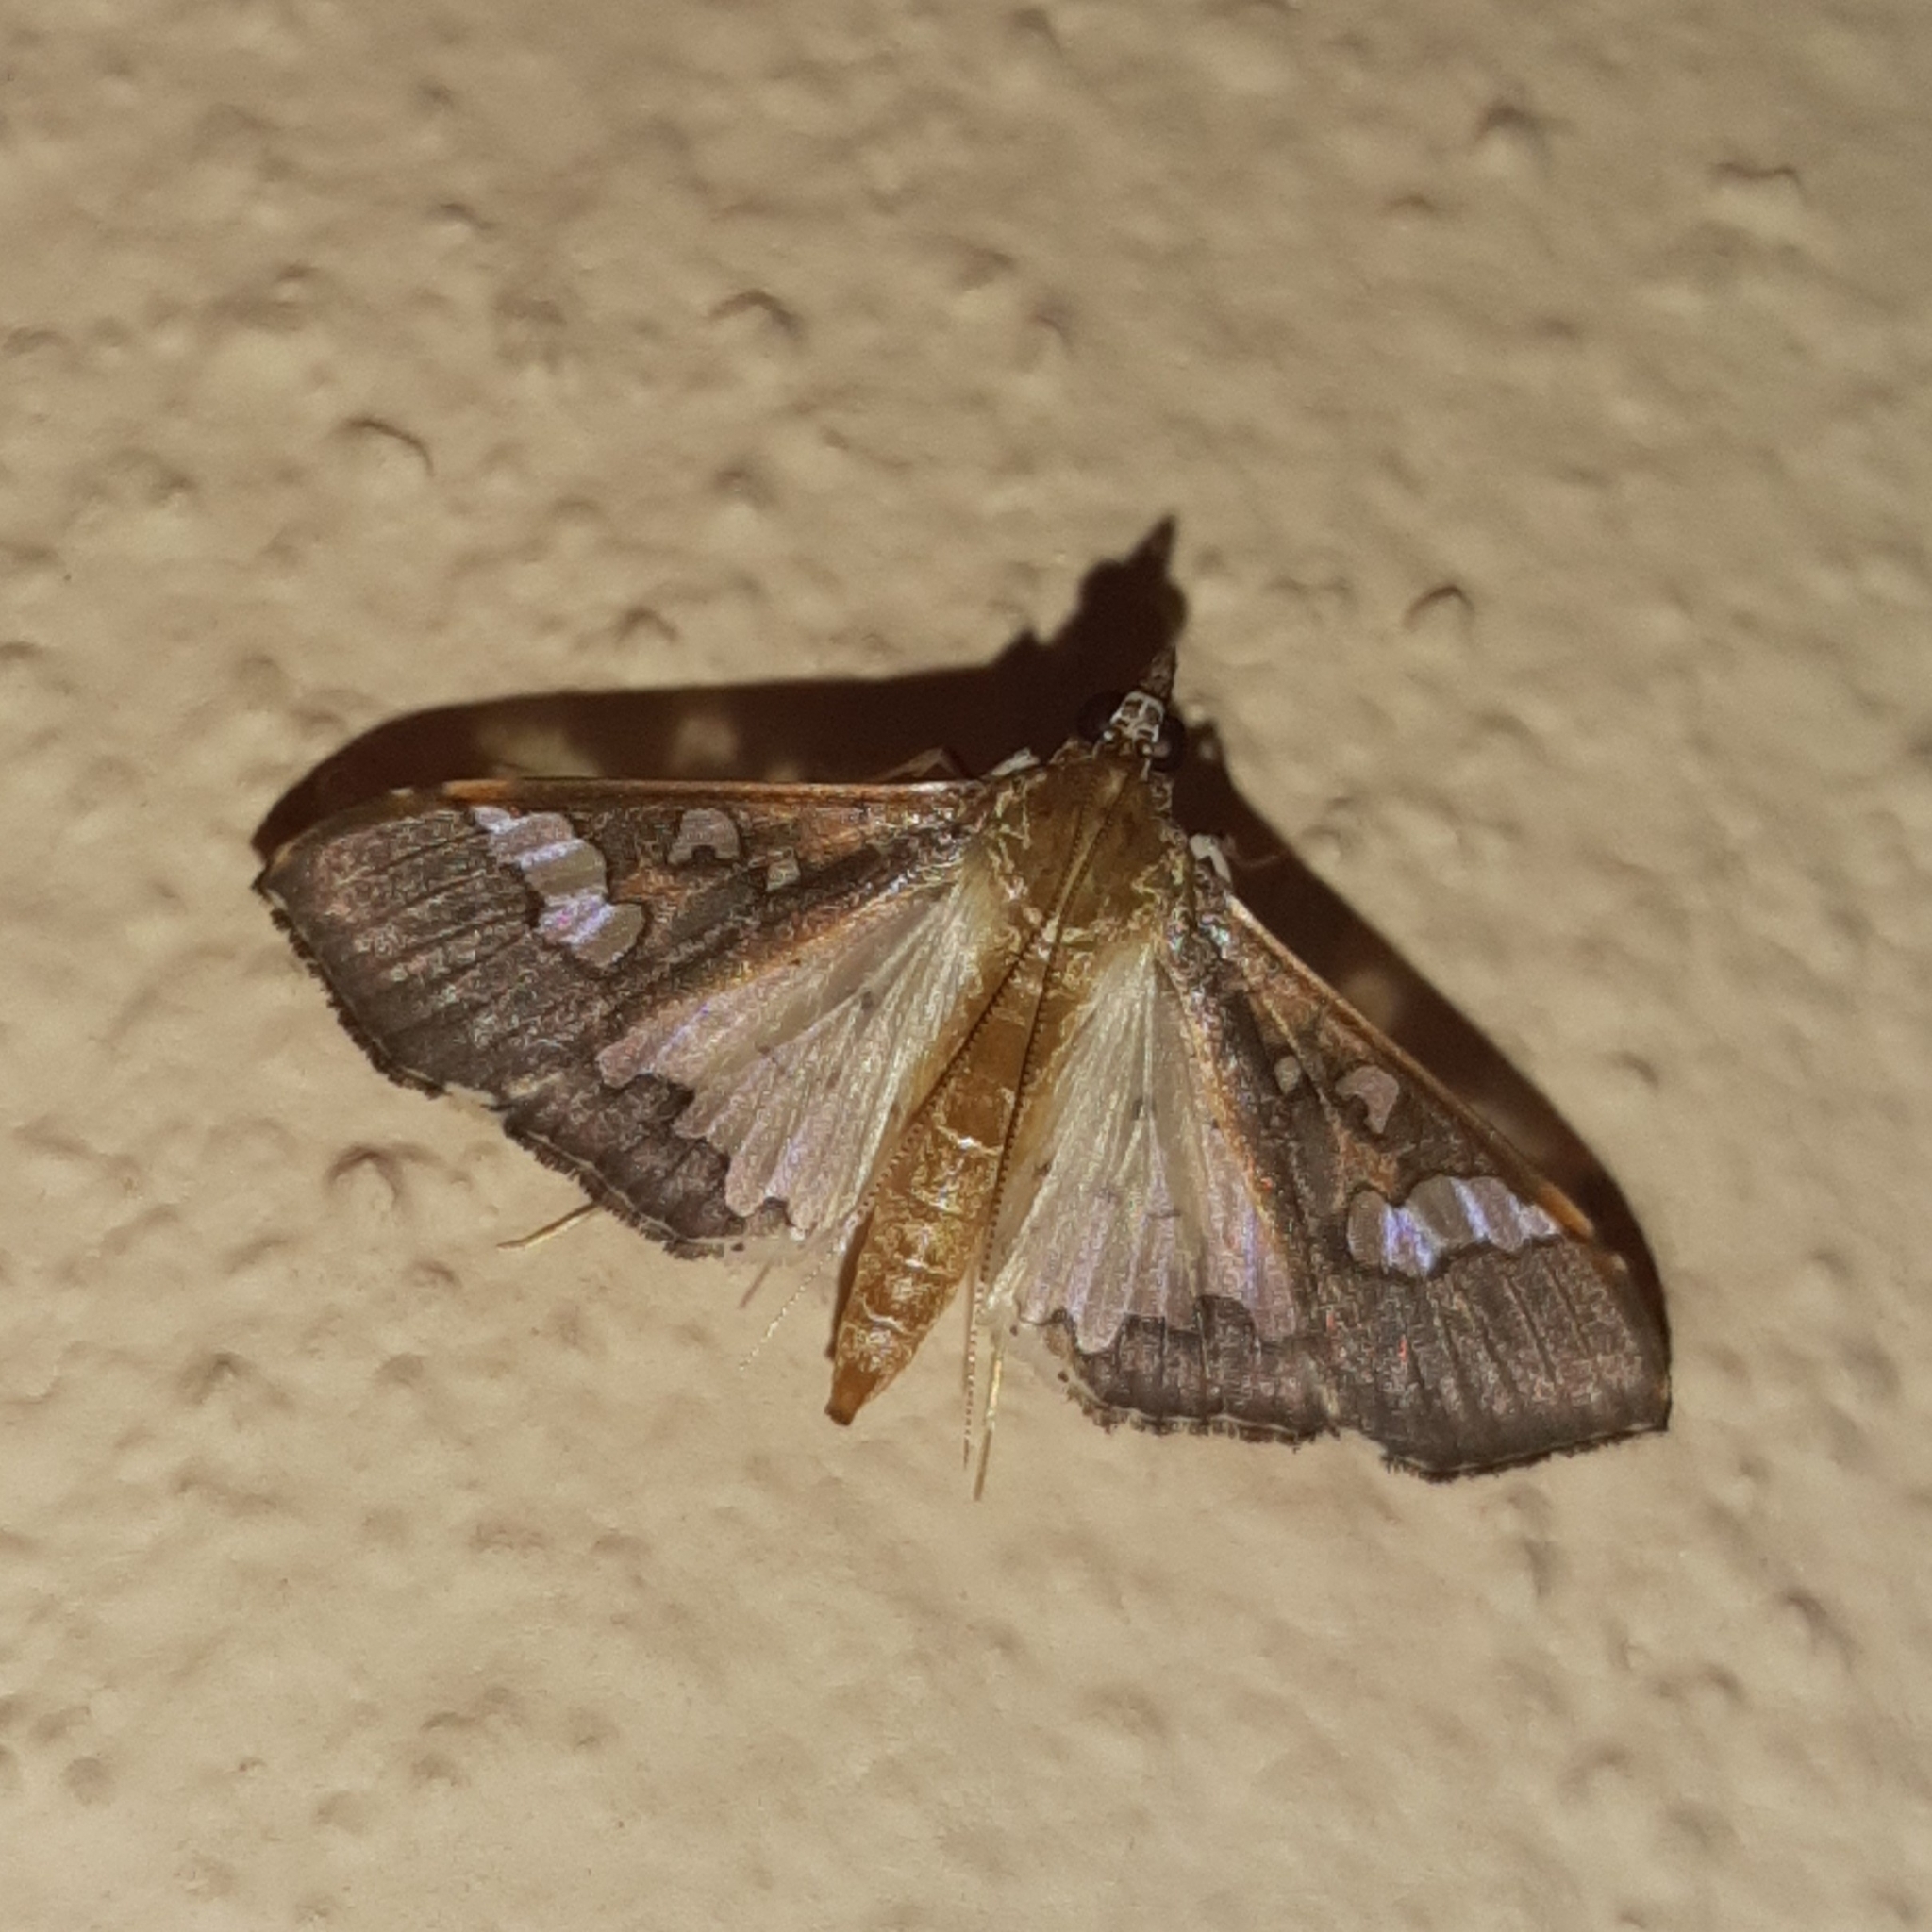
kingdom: Animalia
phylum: Arthropoda
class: Insecta
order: Lepidoptera
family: Crambidae
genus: Maruca
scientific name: Maruca vitrata
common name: Maruca pod borer
